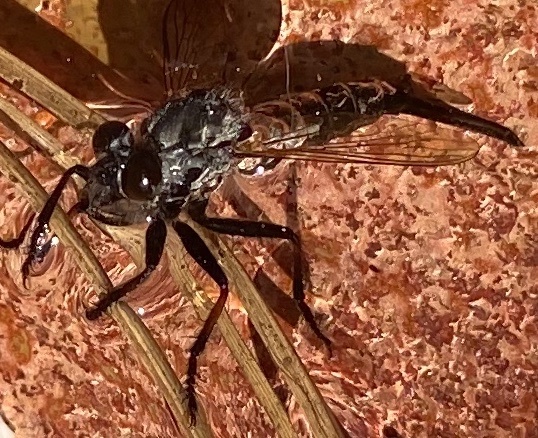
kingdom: Animalia
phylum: Arthropoda
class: Insecta
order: Diptera
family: Asilidae
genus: Efferia
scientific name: Efferia aestuans
